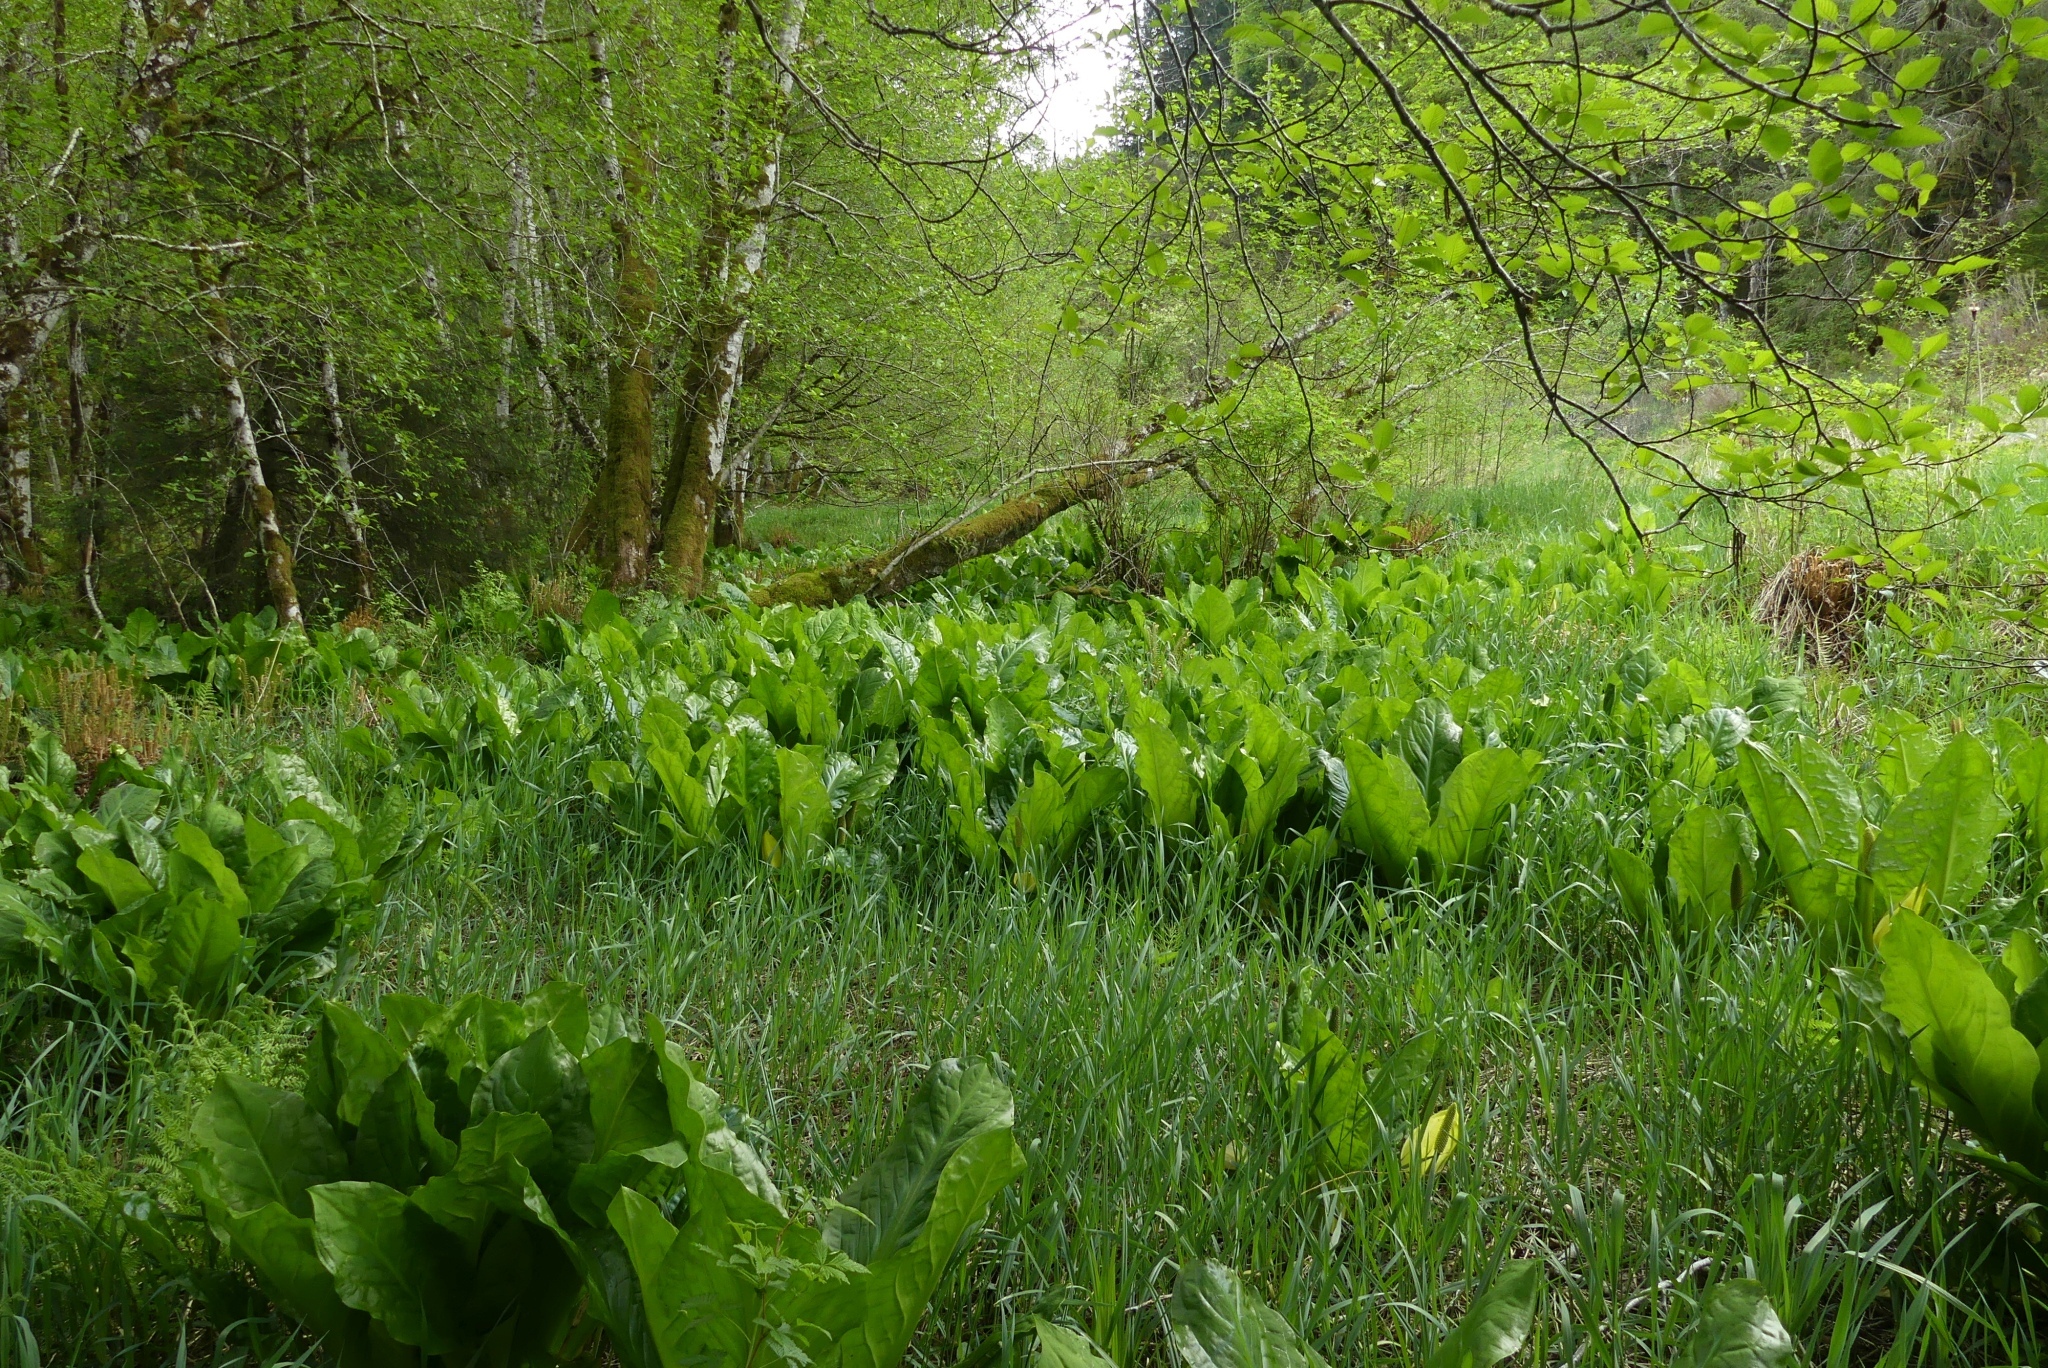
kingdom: Plantae
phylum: Tracheophyta
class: Liliopsida
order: Alismatales
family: Araceae
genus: Lysichiton
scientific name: Lysichiton americanus
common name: American skunk cabbage
